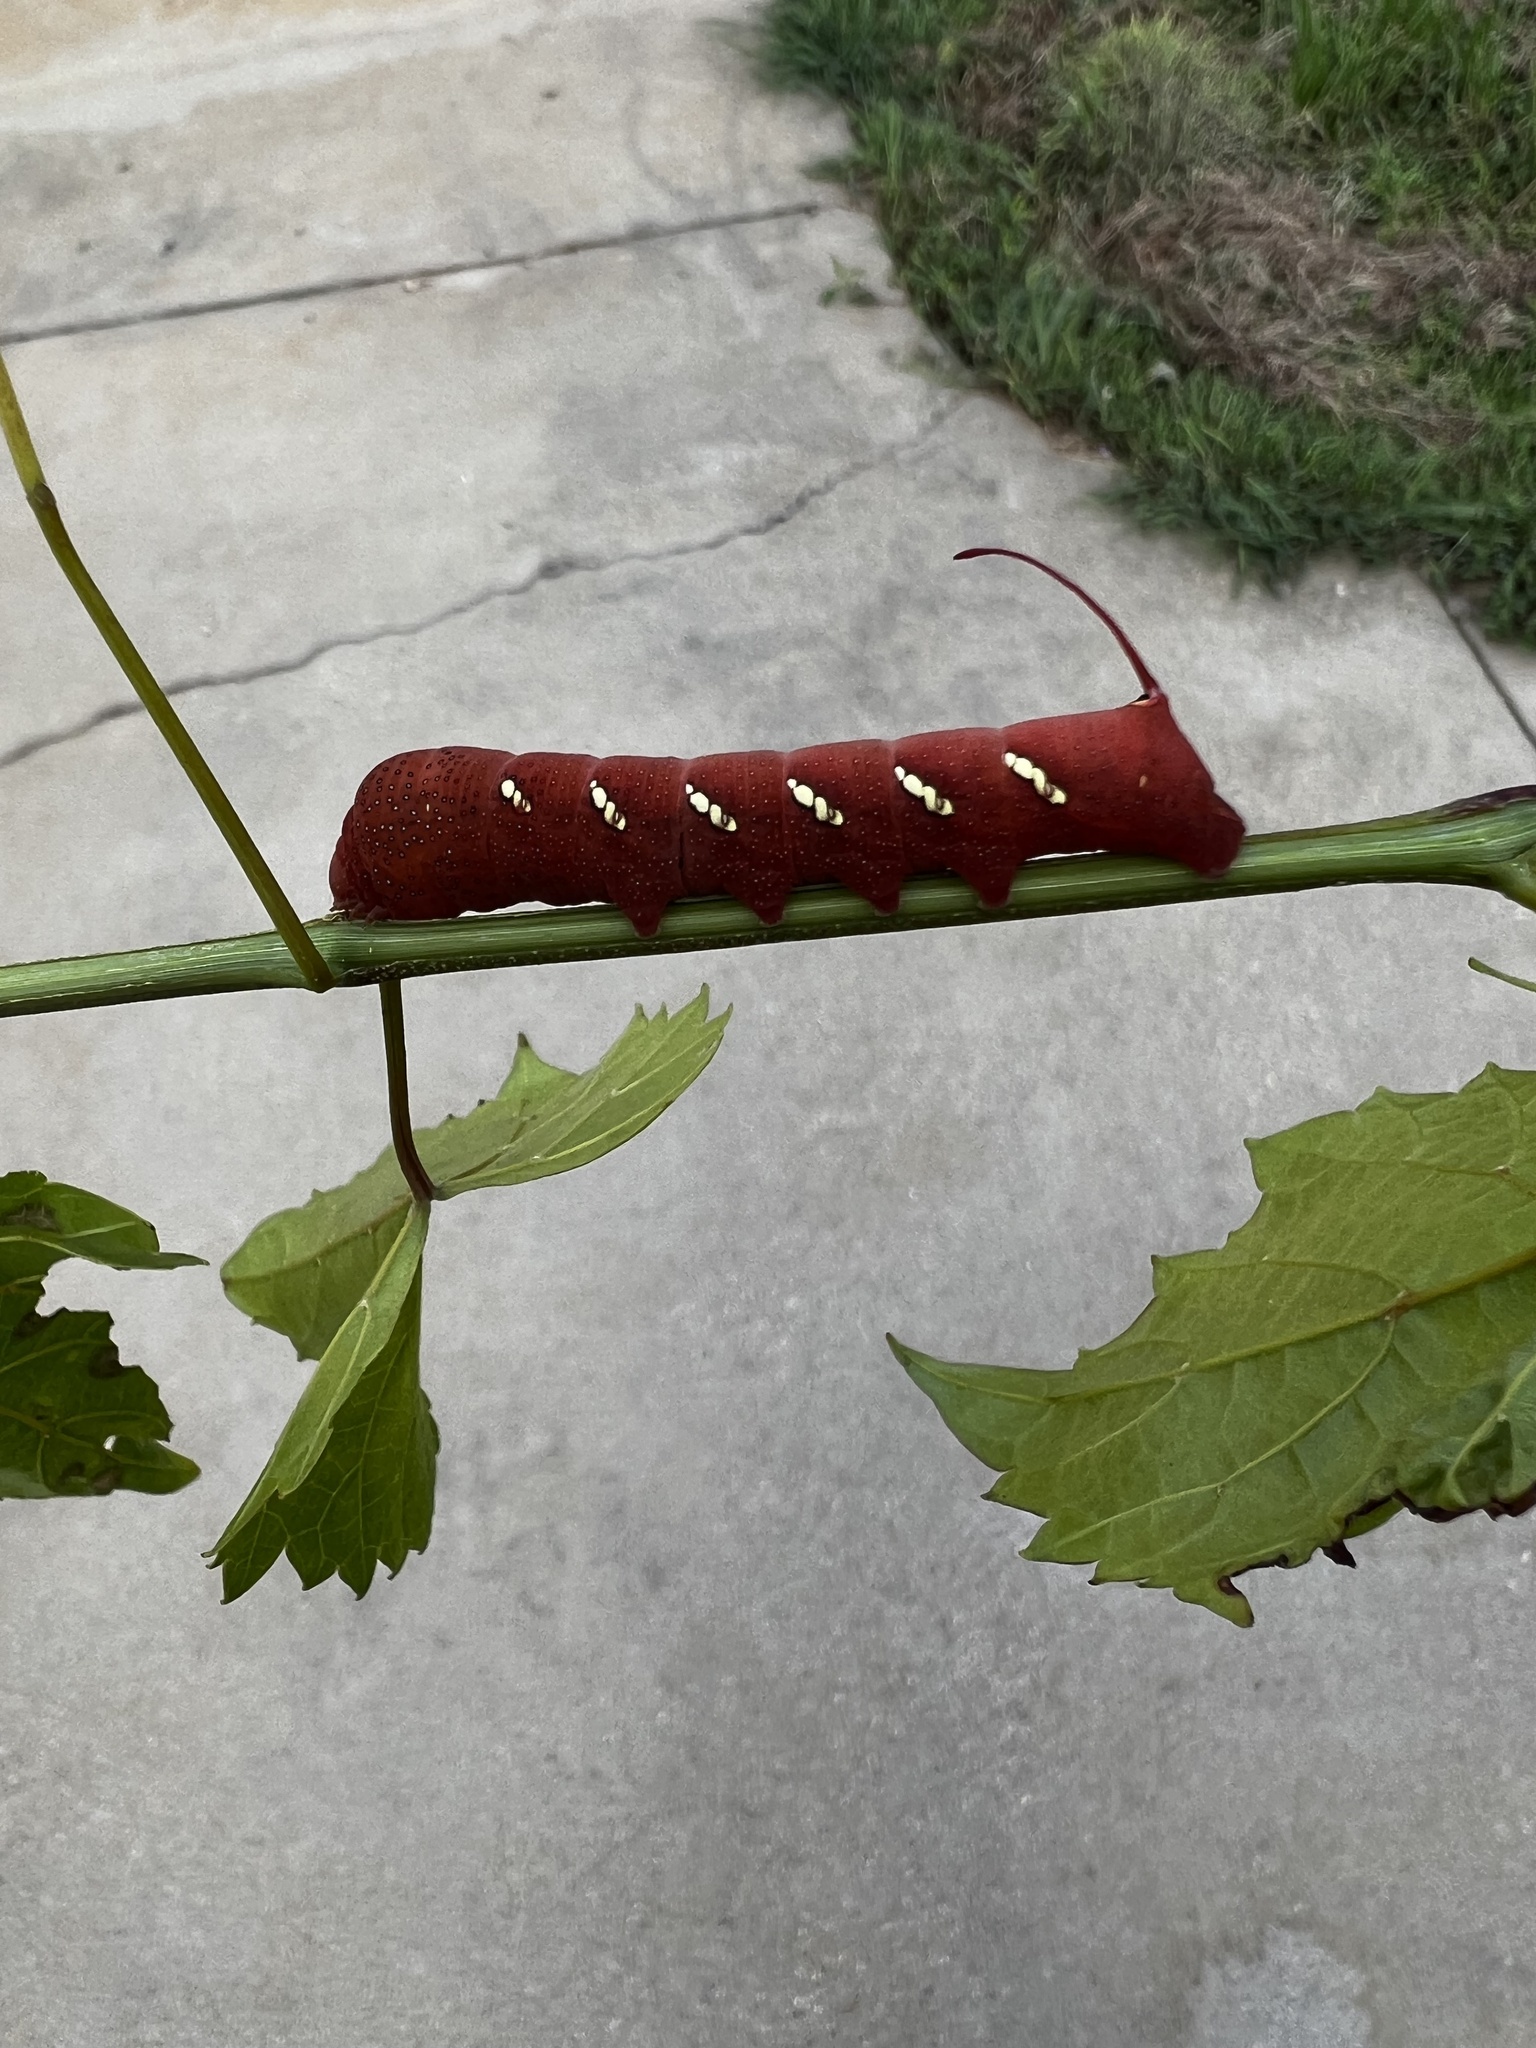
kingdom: Animalia
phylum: Arthropoda
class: Insecta
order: Lepidoptera
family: Sphingidae
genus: Eumorpha
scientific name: Eumorpha achemon
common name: Achemon sphinx
